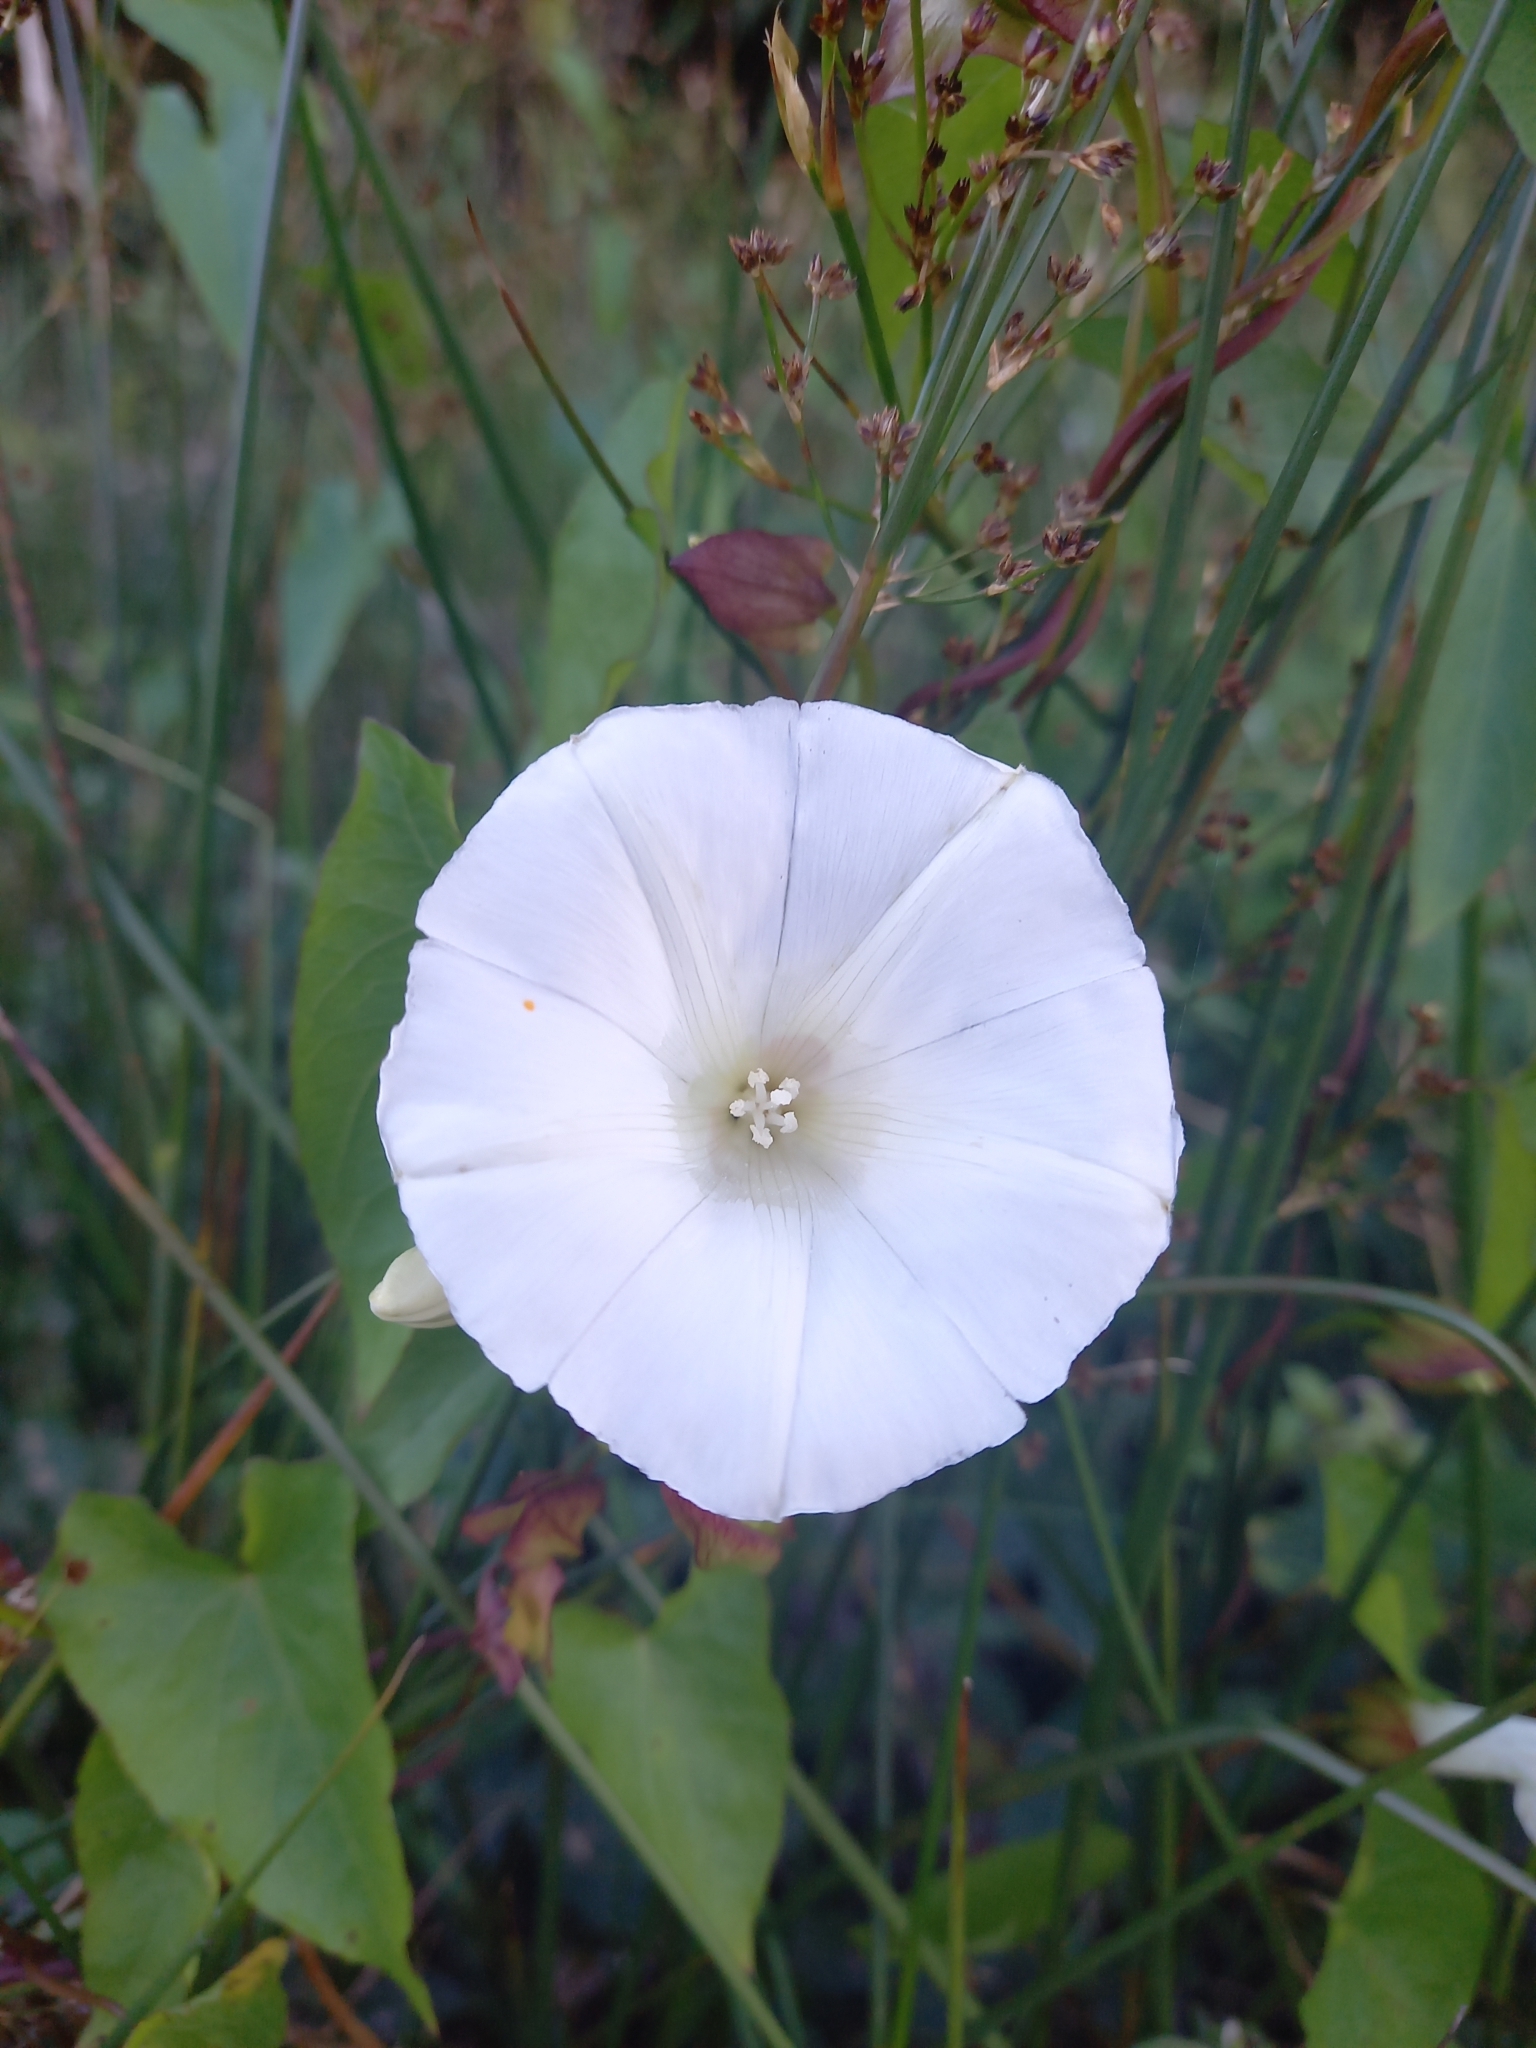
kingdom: Plantae
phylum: Tracheophyta
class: Magnoliopsida
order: Solanales
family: Convolvulaceae
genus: Calystegia
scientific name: Calystegia sepium
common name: Hedge bindweed
